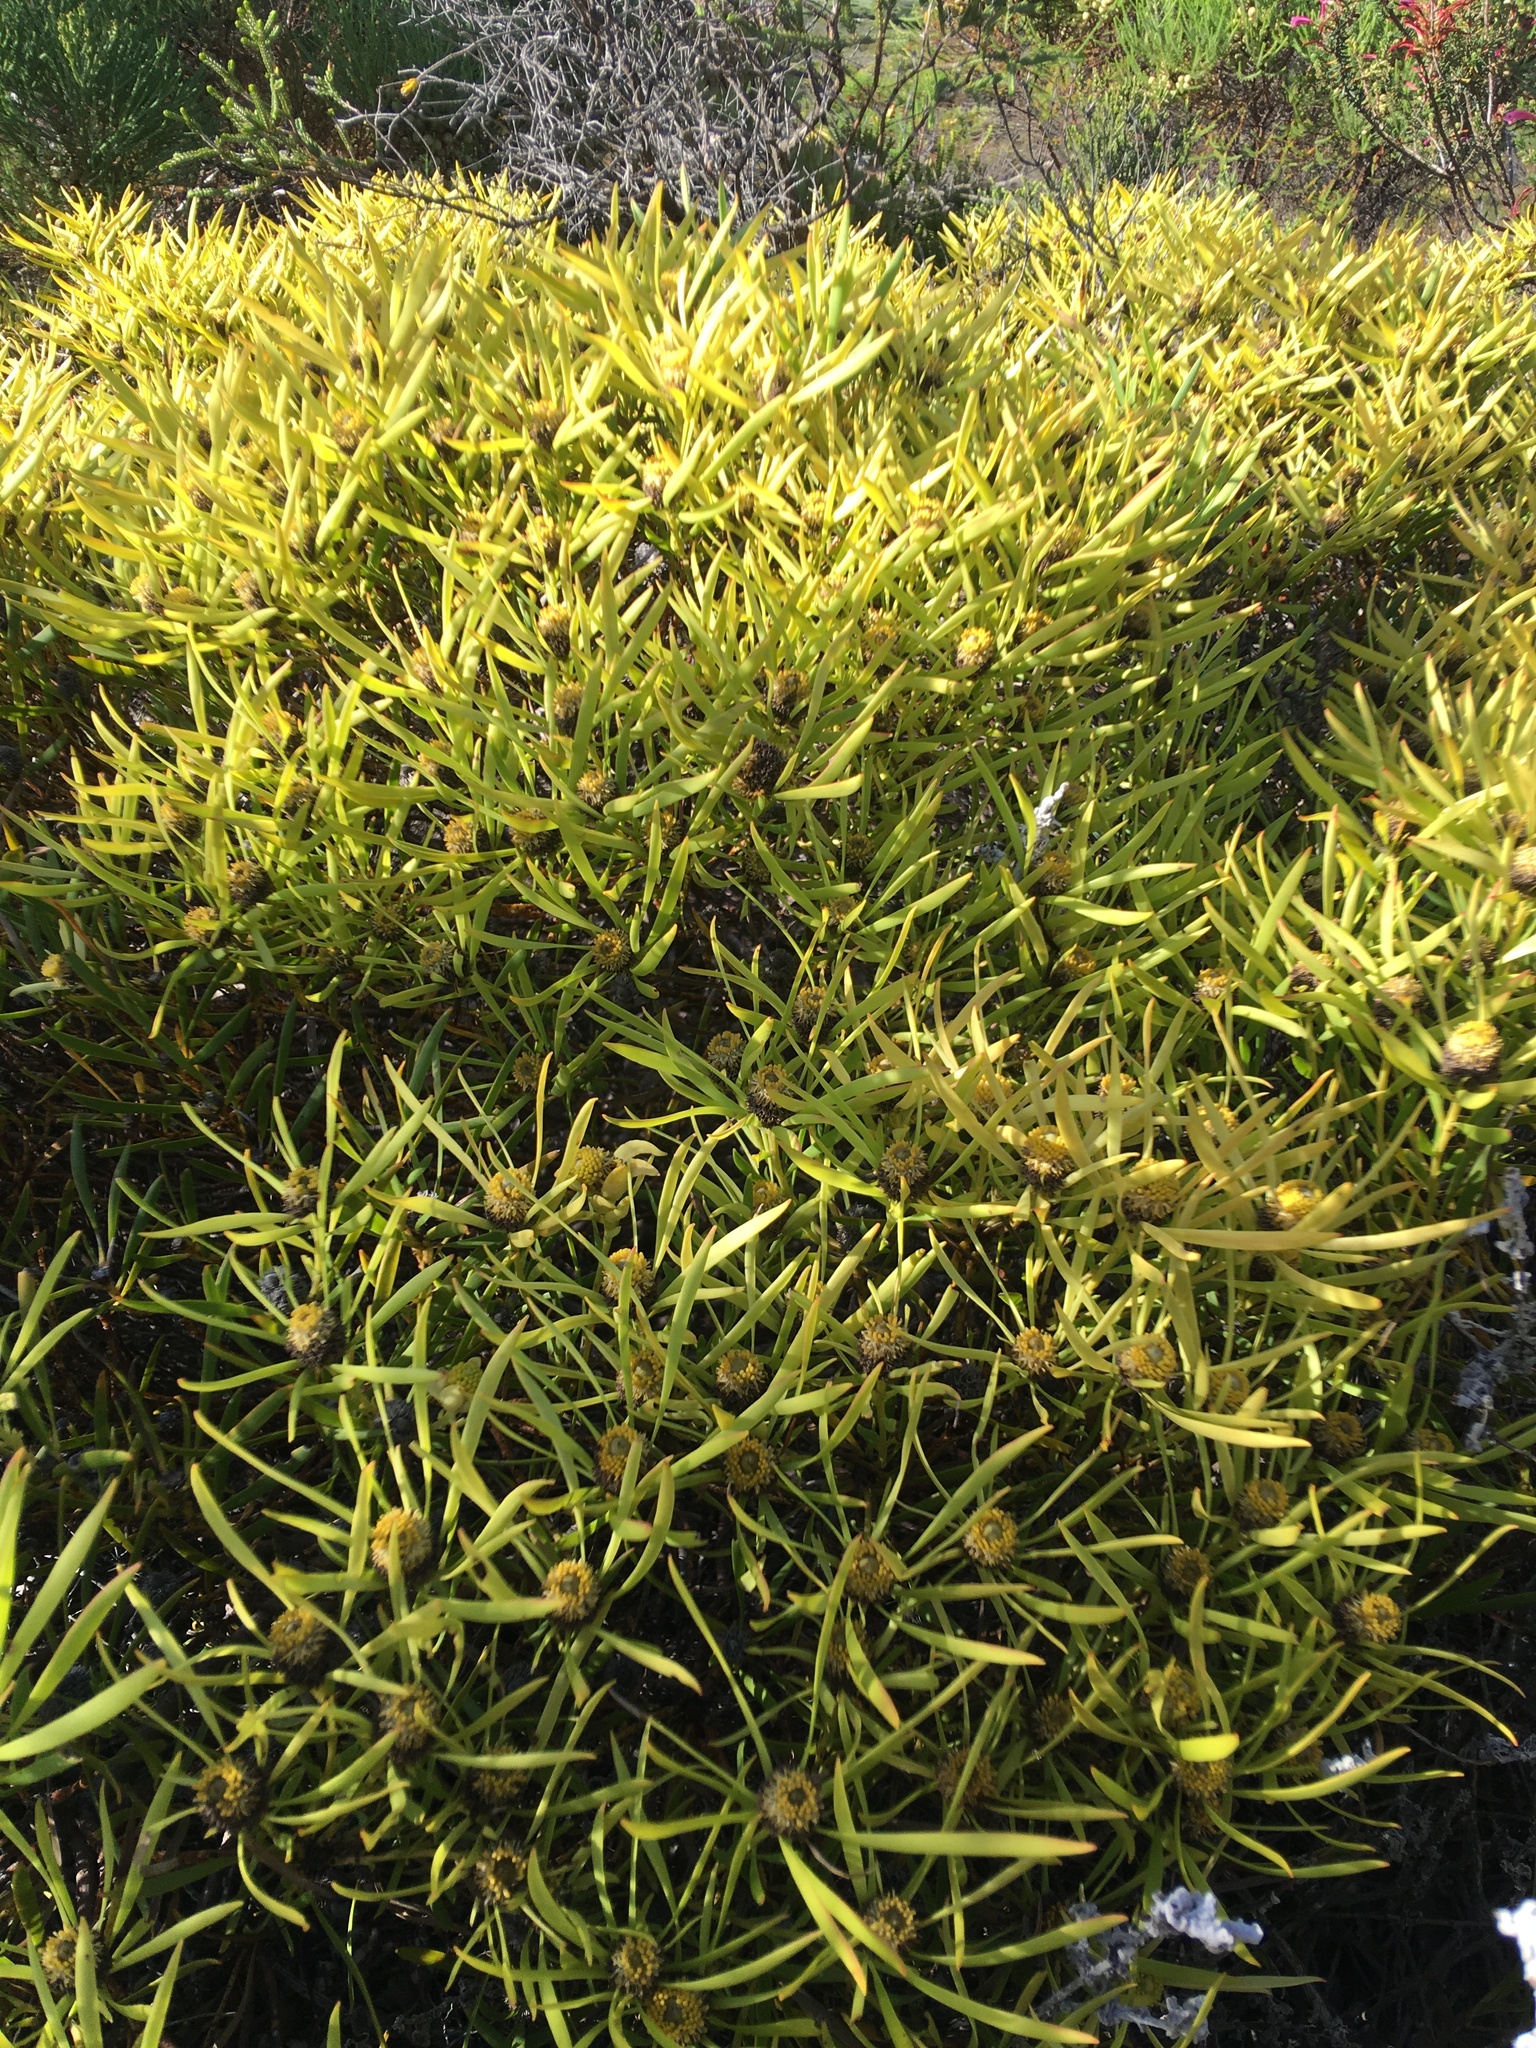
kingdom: Plantae
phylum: Tracheophyta
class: Magnoliopsida
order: Proteales
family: Proteaceae
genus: Leucadendron
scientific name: Leucadendron salignum
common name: Common sunshine conebush
